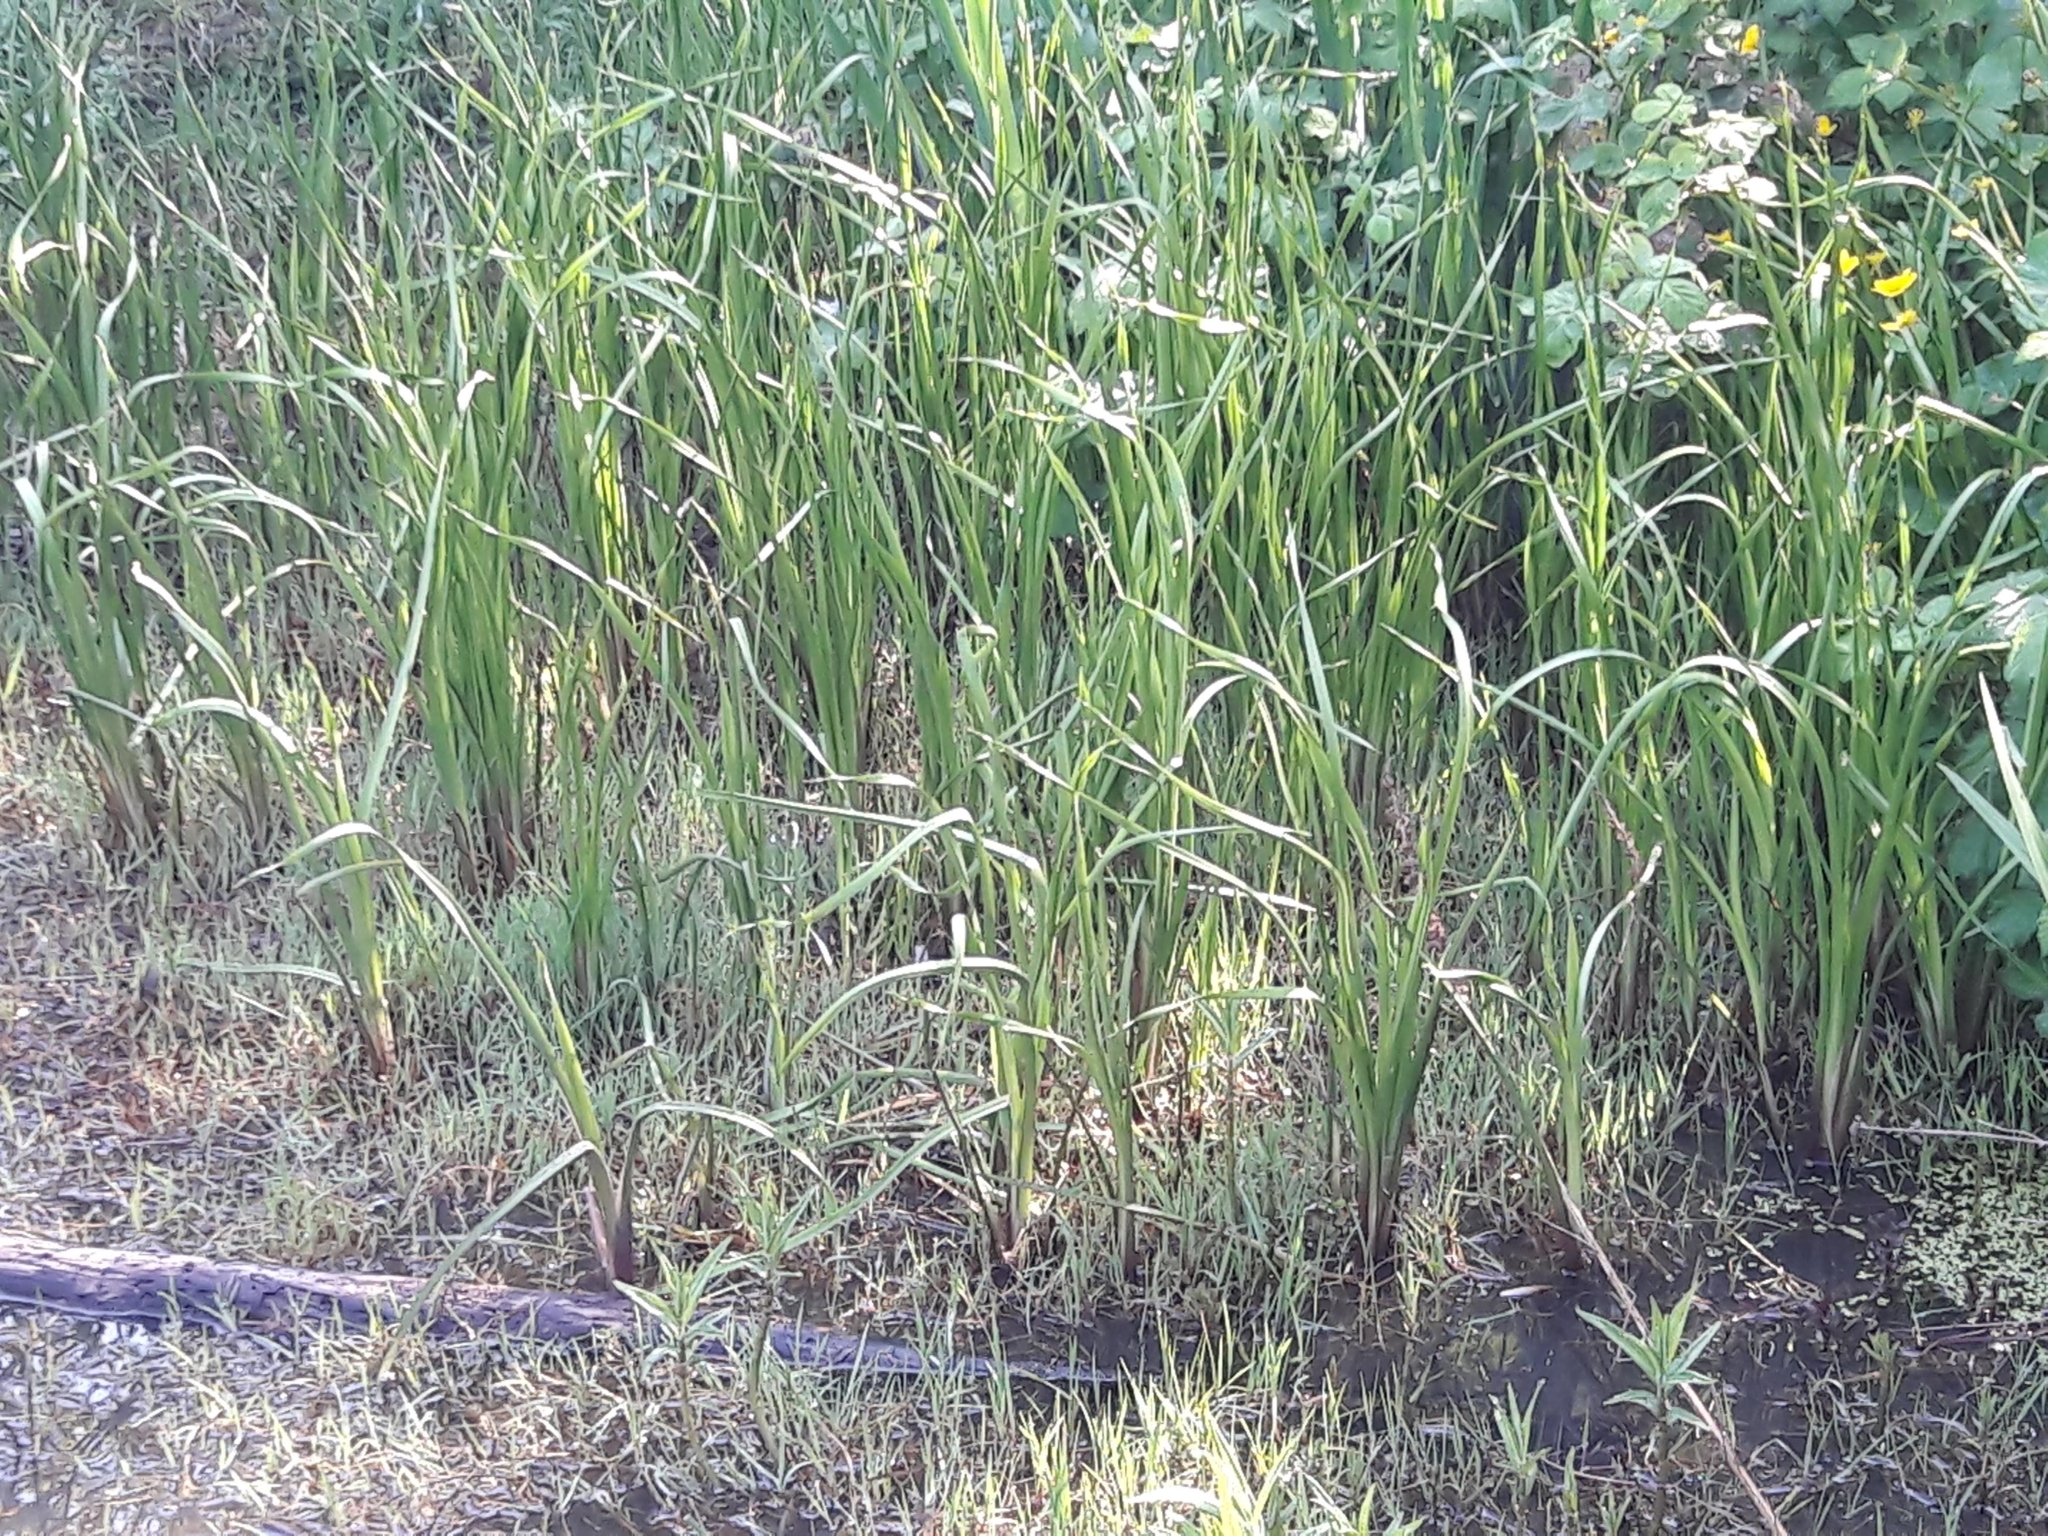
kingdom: Plantae
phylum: Tracheophyta
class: Liliopsida
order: Alismatales
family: Butomaceae
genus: Butomus
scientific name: Butomus umbellatus
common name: Flowering-rush
